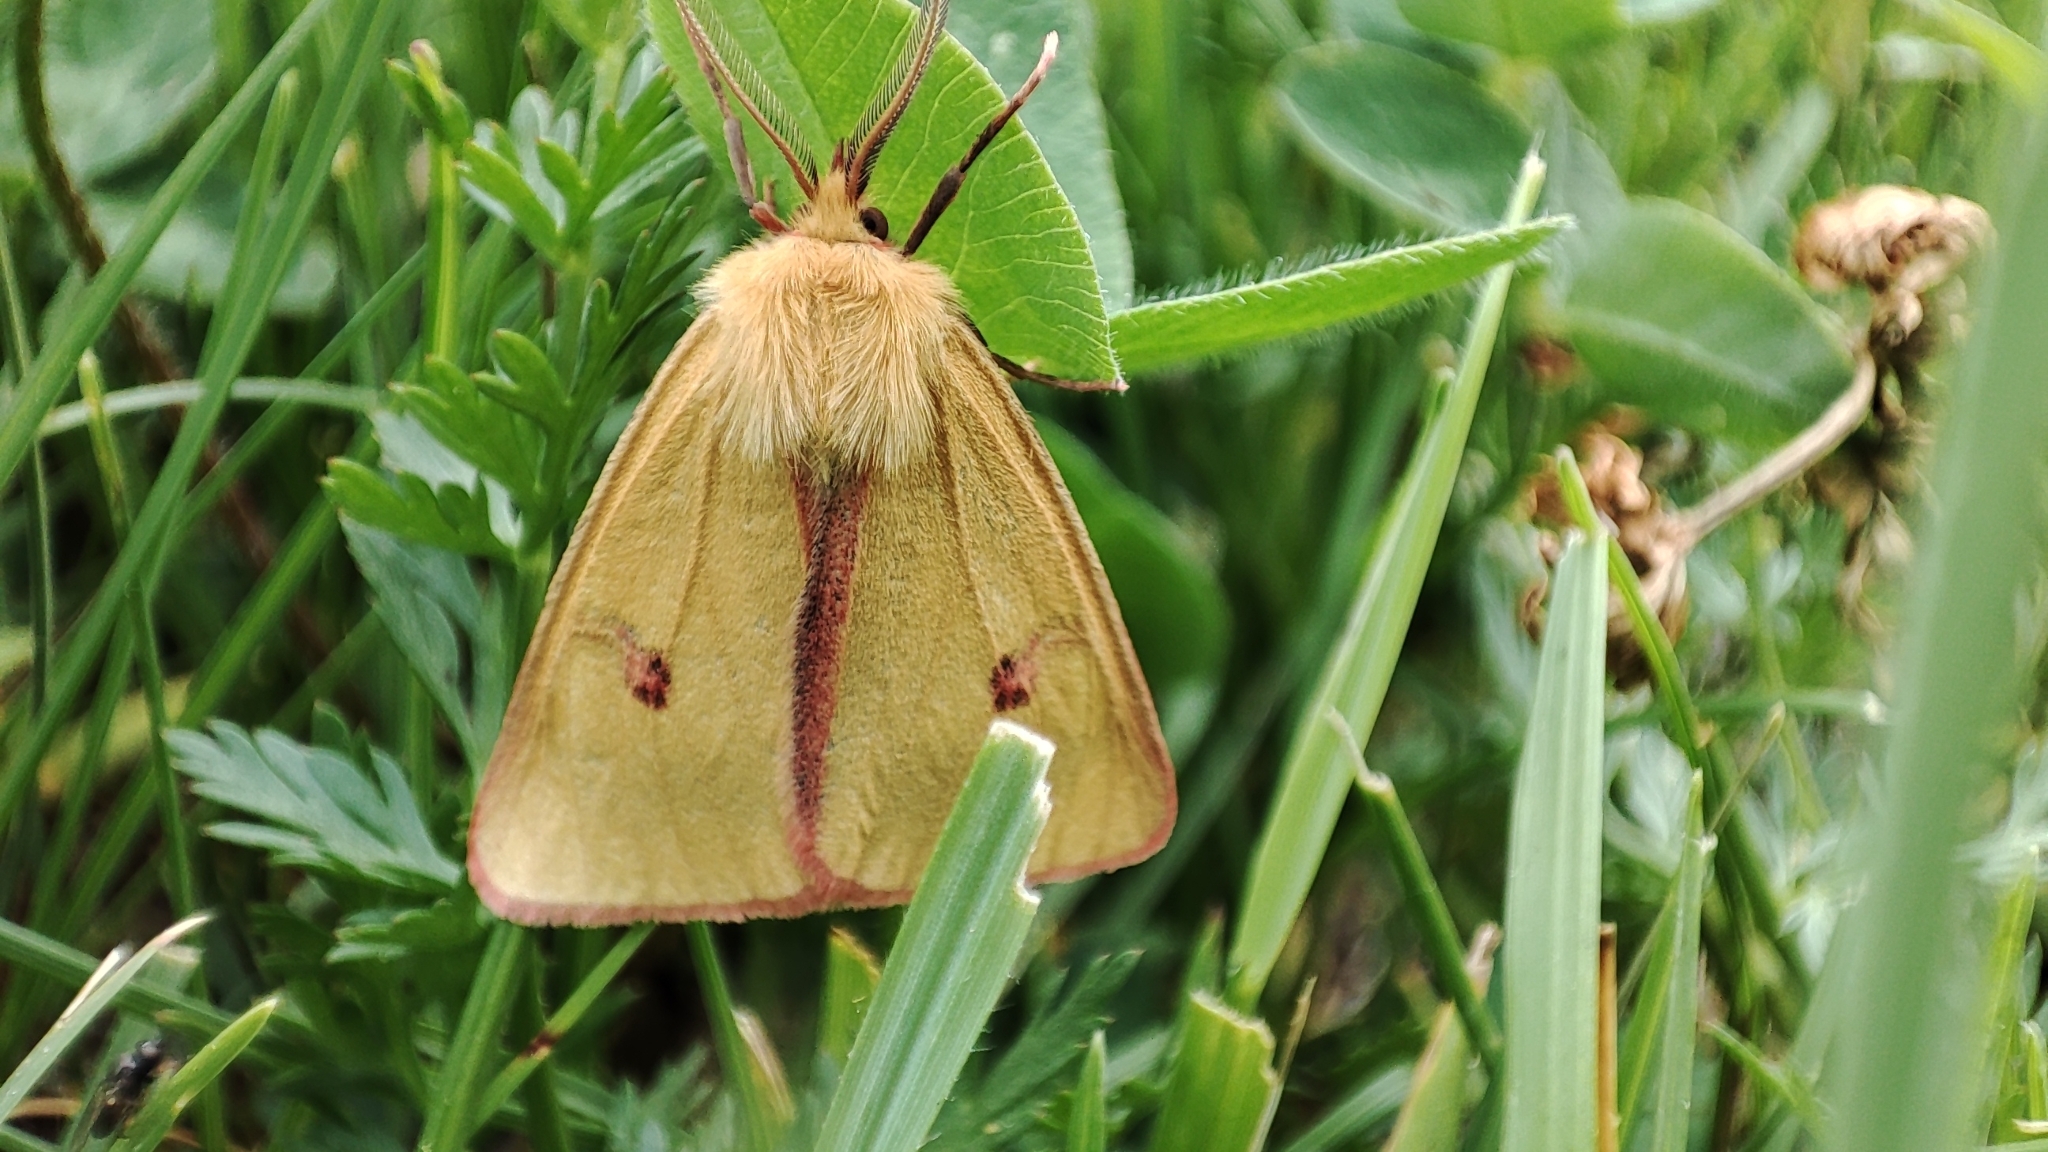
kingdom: Animalia
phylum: Arthropoda
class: Insecta
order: Lepidoptera
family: Erebidae
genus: Diacrisia
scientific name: Diacrisia sannio
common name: Clouded buff
